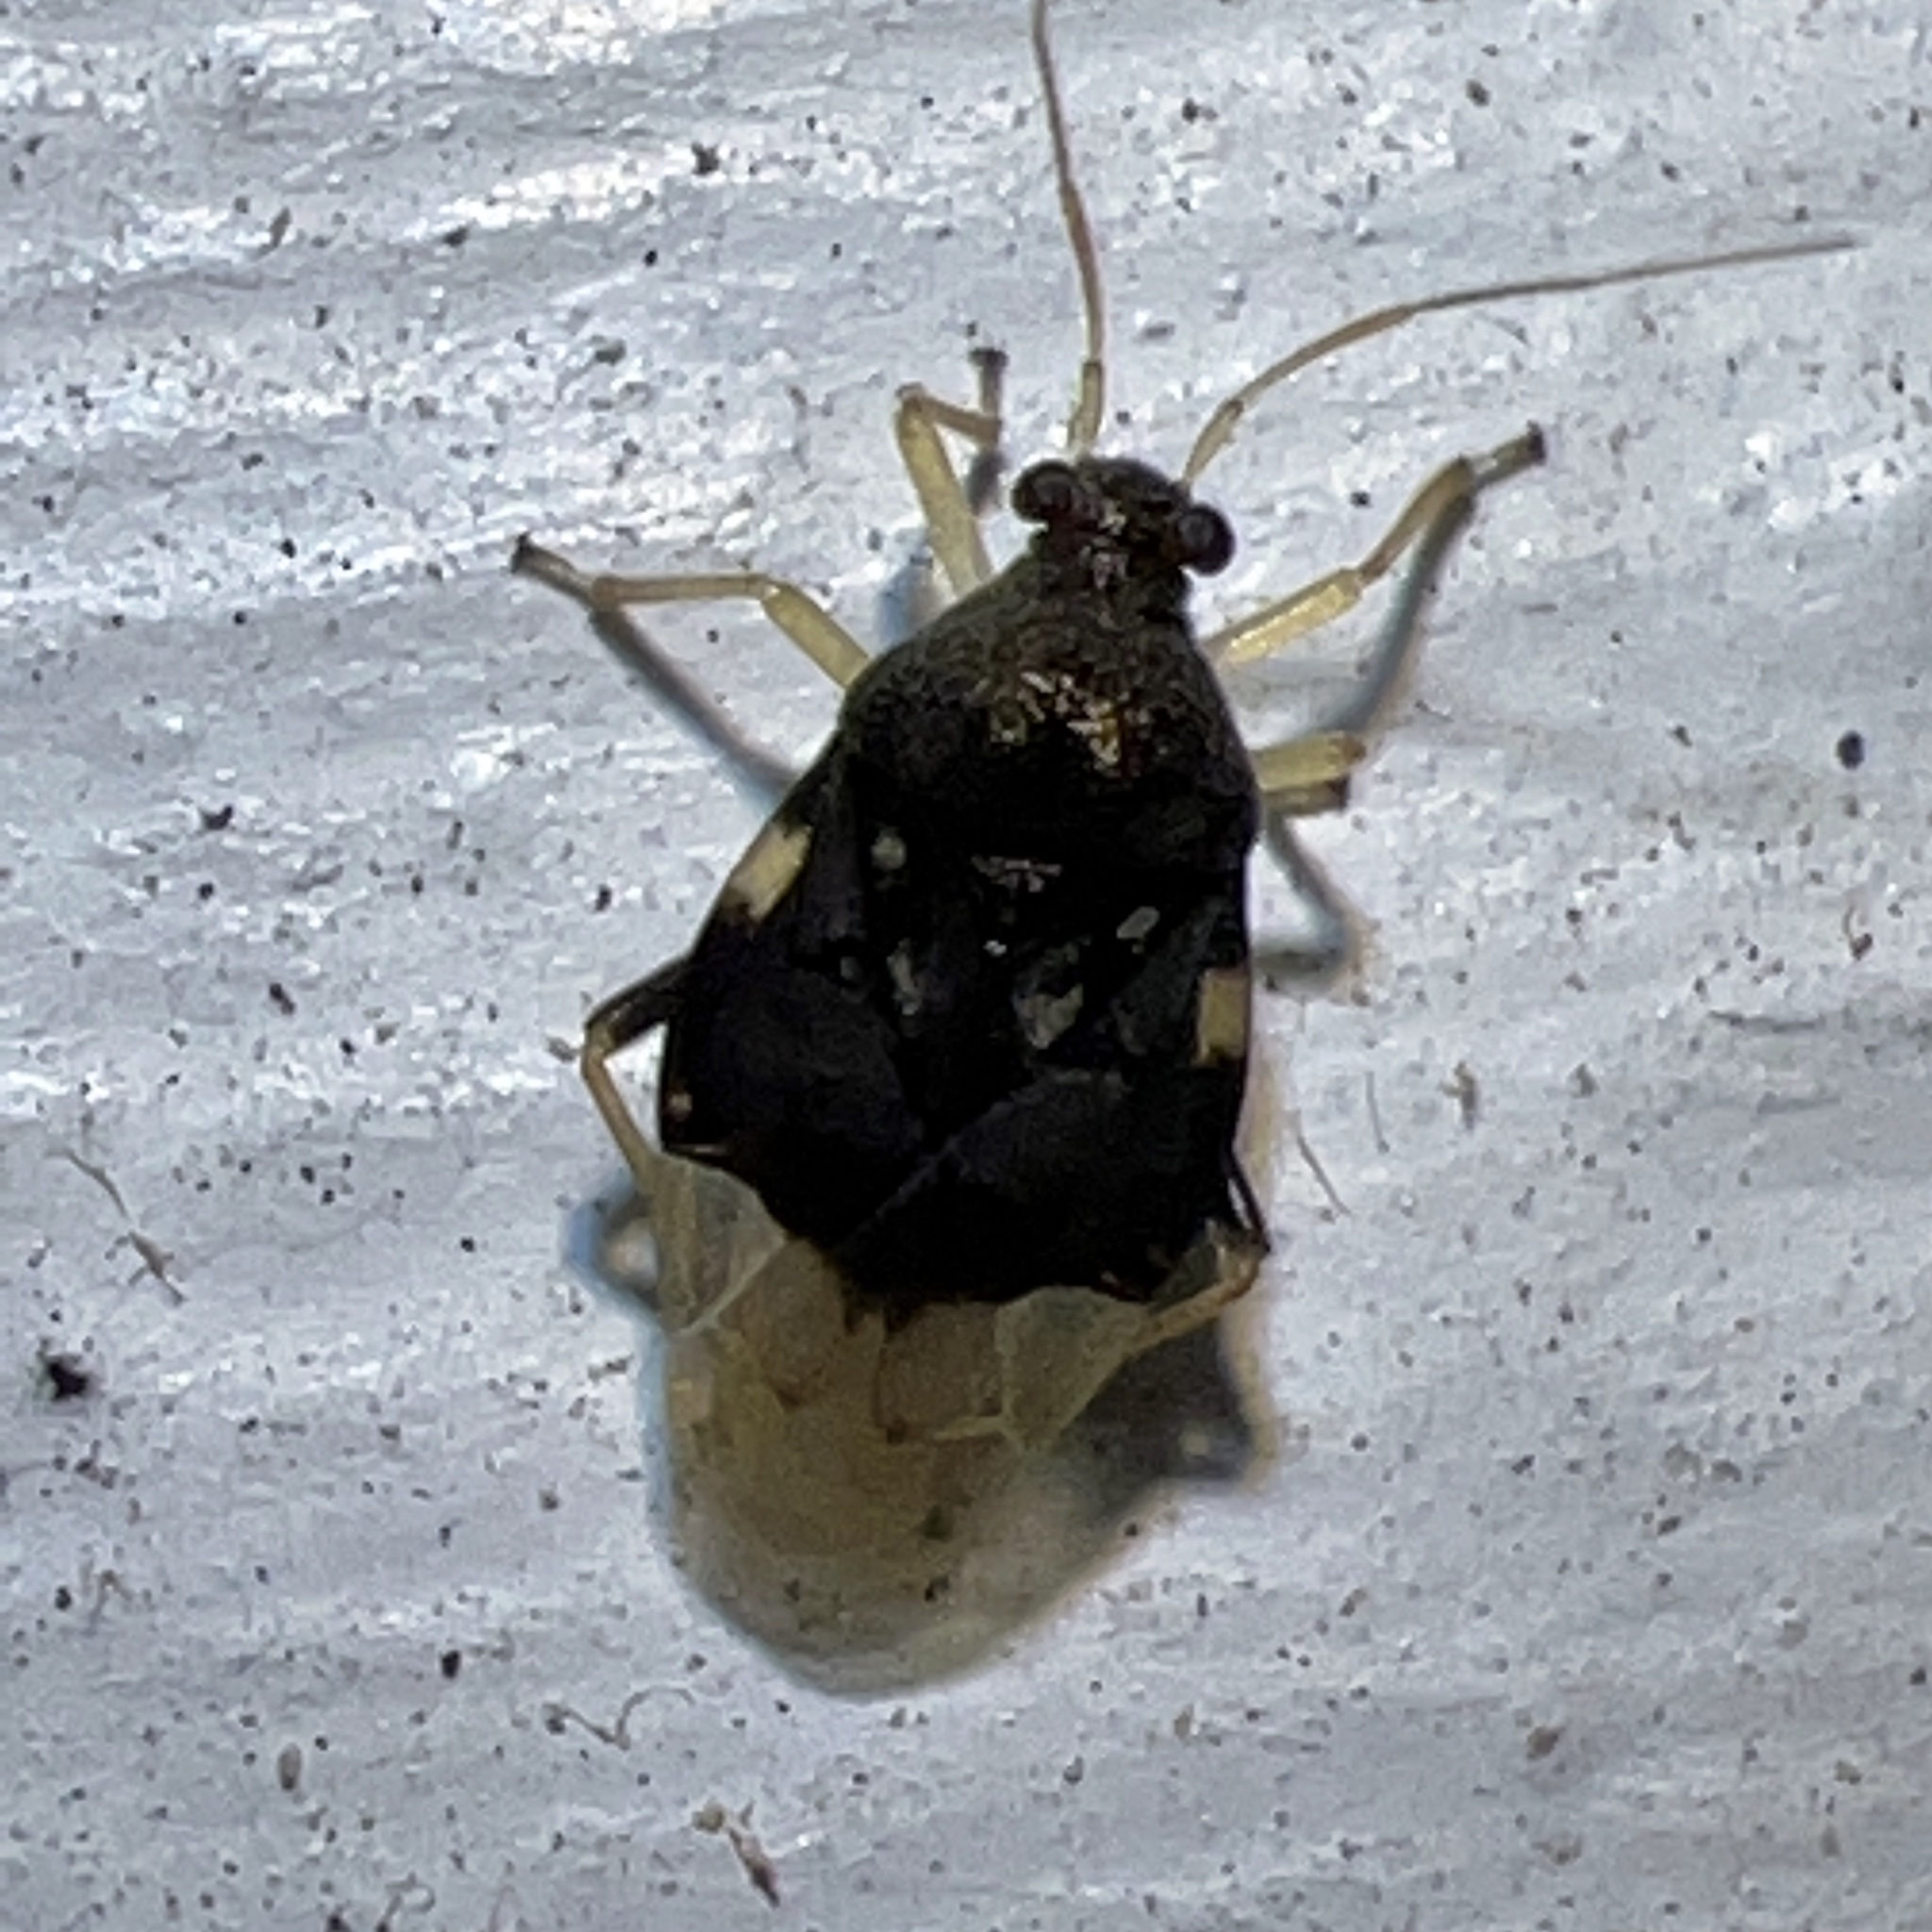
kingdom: Animalia
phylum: Arthropoda
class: Insecta
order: Hemiptera
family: Miridae
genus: Pycnoderes
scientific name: Pycnoderes quadrimaculatus
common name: Plant bug
